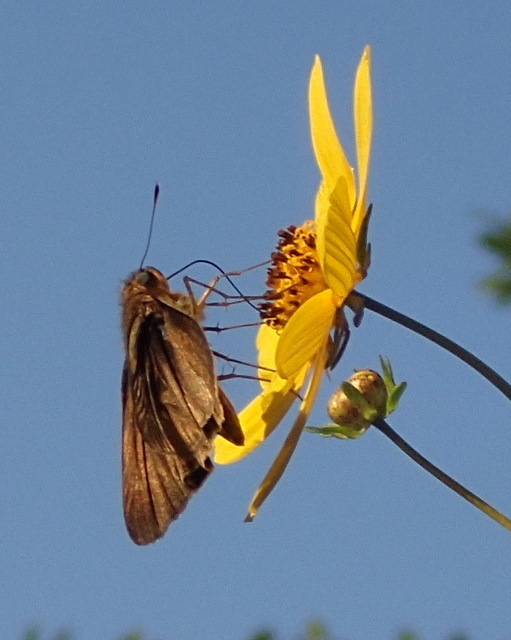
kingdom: Animalia
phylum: Arthropoda
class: Insecta
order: Lepidoptera
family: Hesperiidae
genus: Panoquina
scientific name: Panoquina ocola
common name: Ocola skipper
